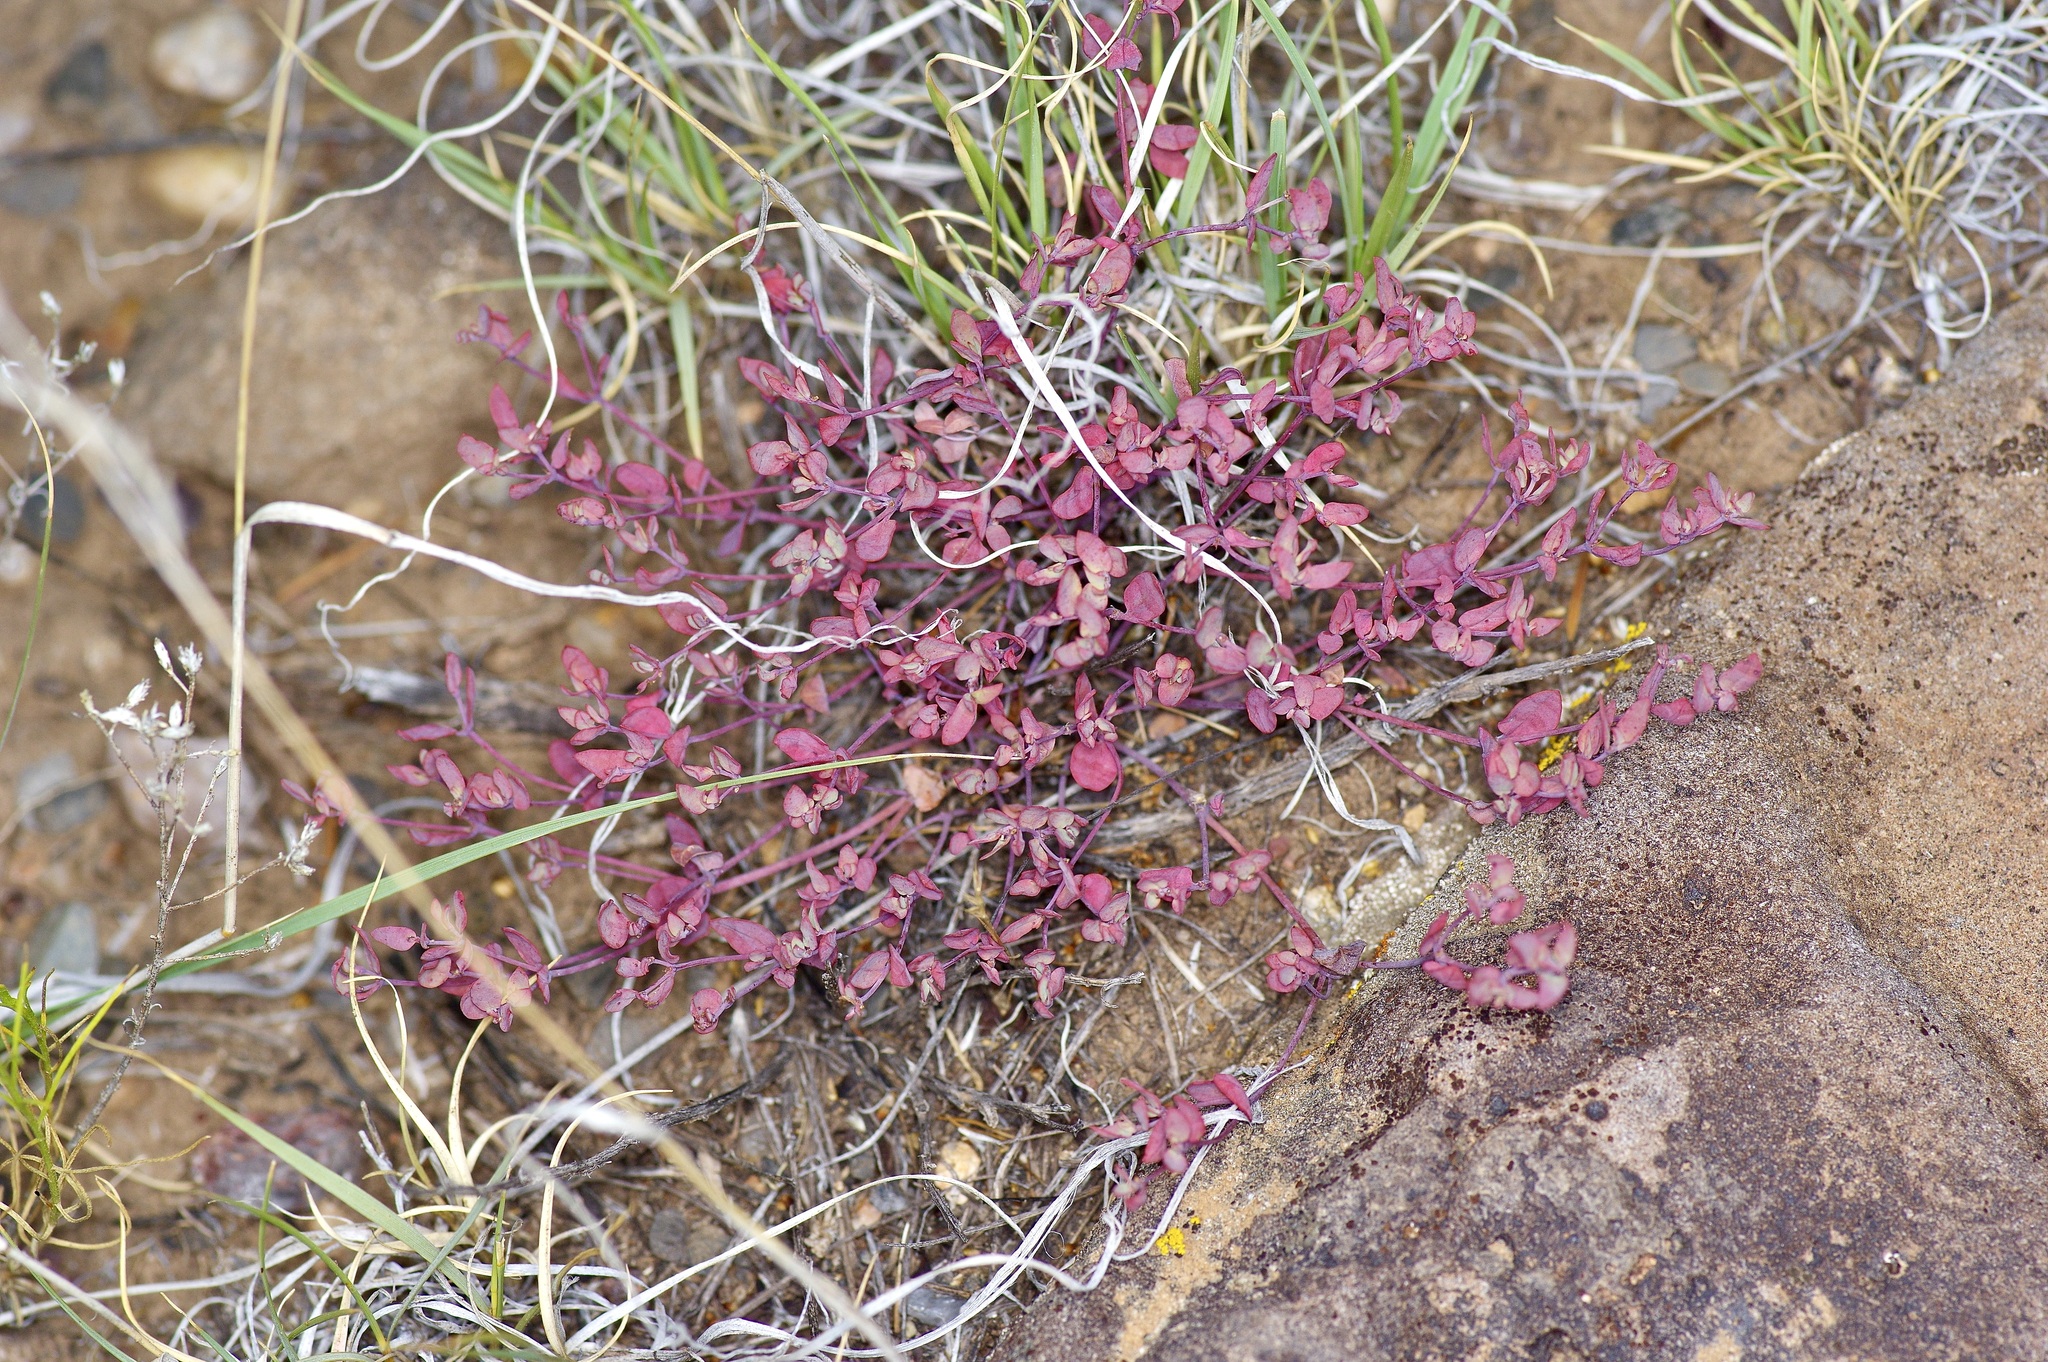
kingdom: Plantae
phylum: Tracheophyta
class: Magnoliopsida
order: Malpighiales
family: Euphorbiaceae
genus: Euphorbia
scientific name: Euphorbia fendleri
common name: Fendler's euphorbia
